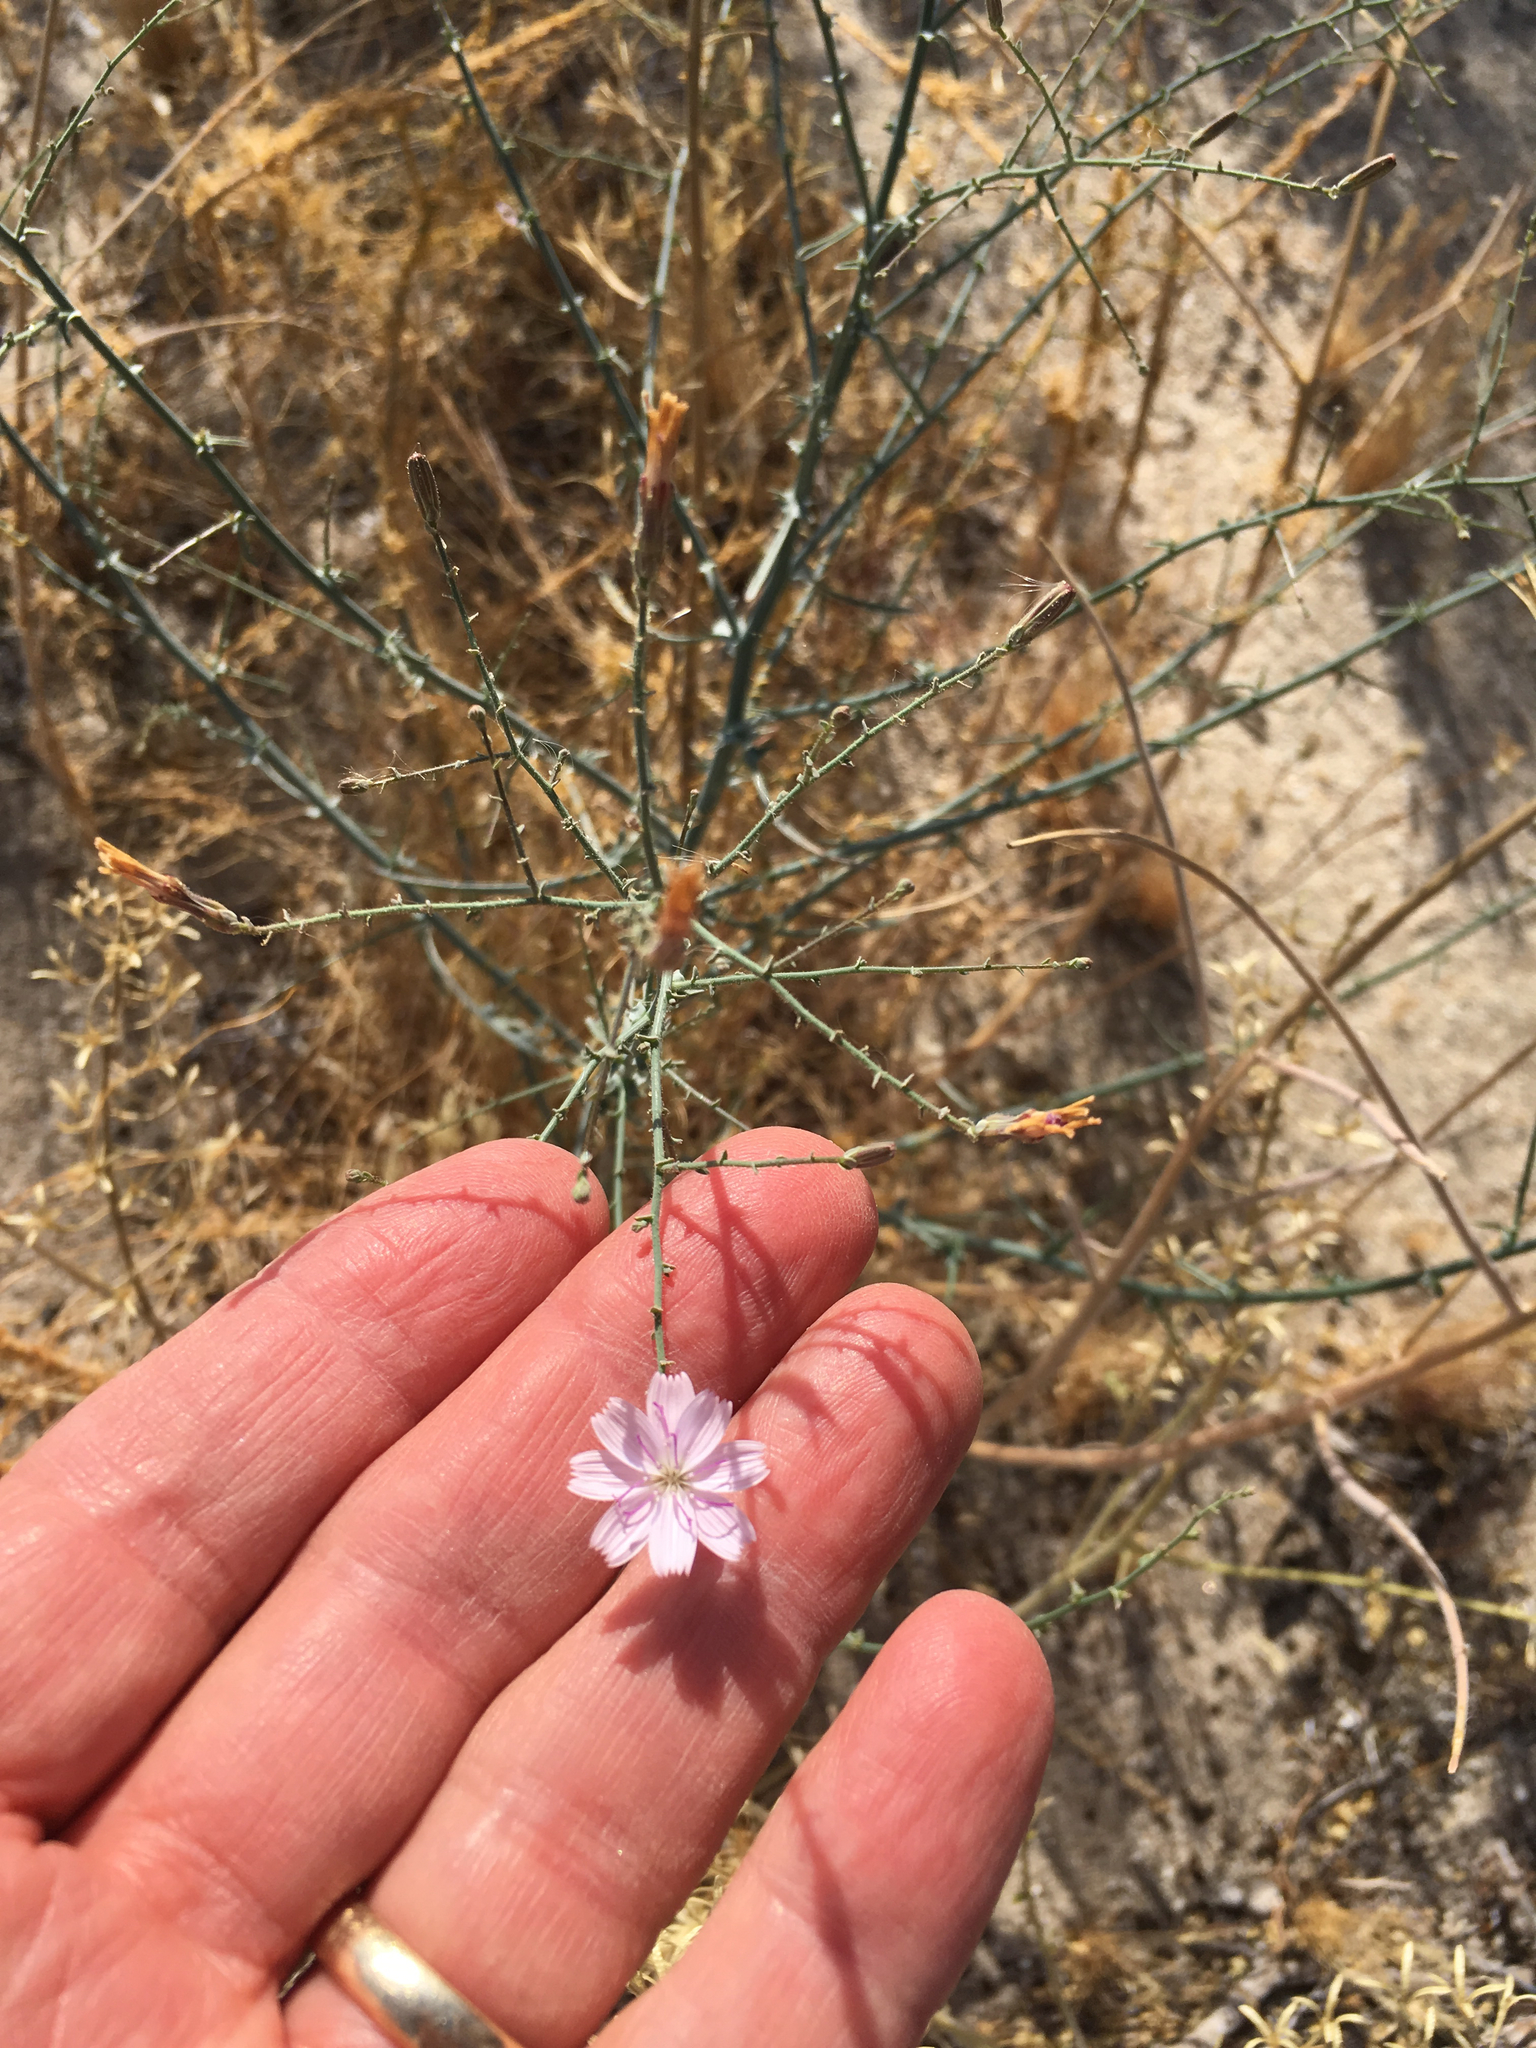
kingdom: Plantae
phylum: Tracheophyta
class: Magnoliopsida
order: Asterales
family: Asteraceae
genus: Stephanomeria
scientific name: Stephanomeria exigua
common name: Small wirelettuce
